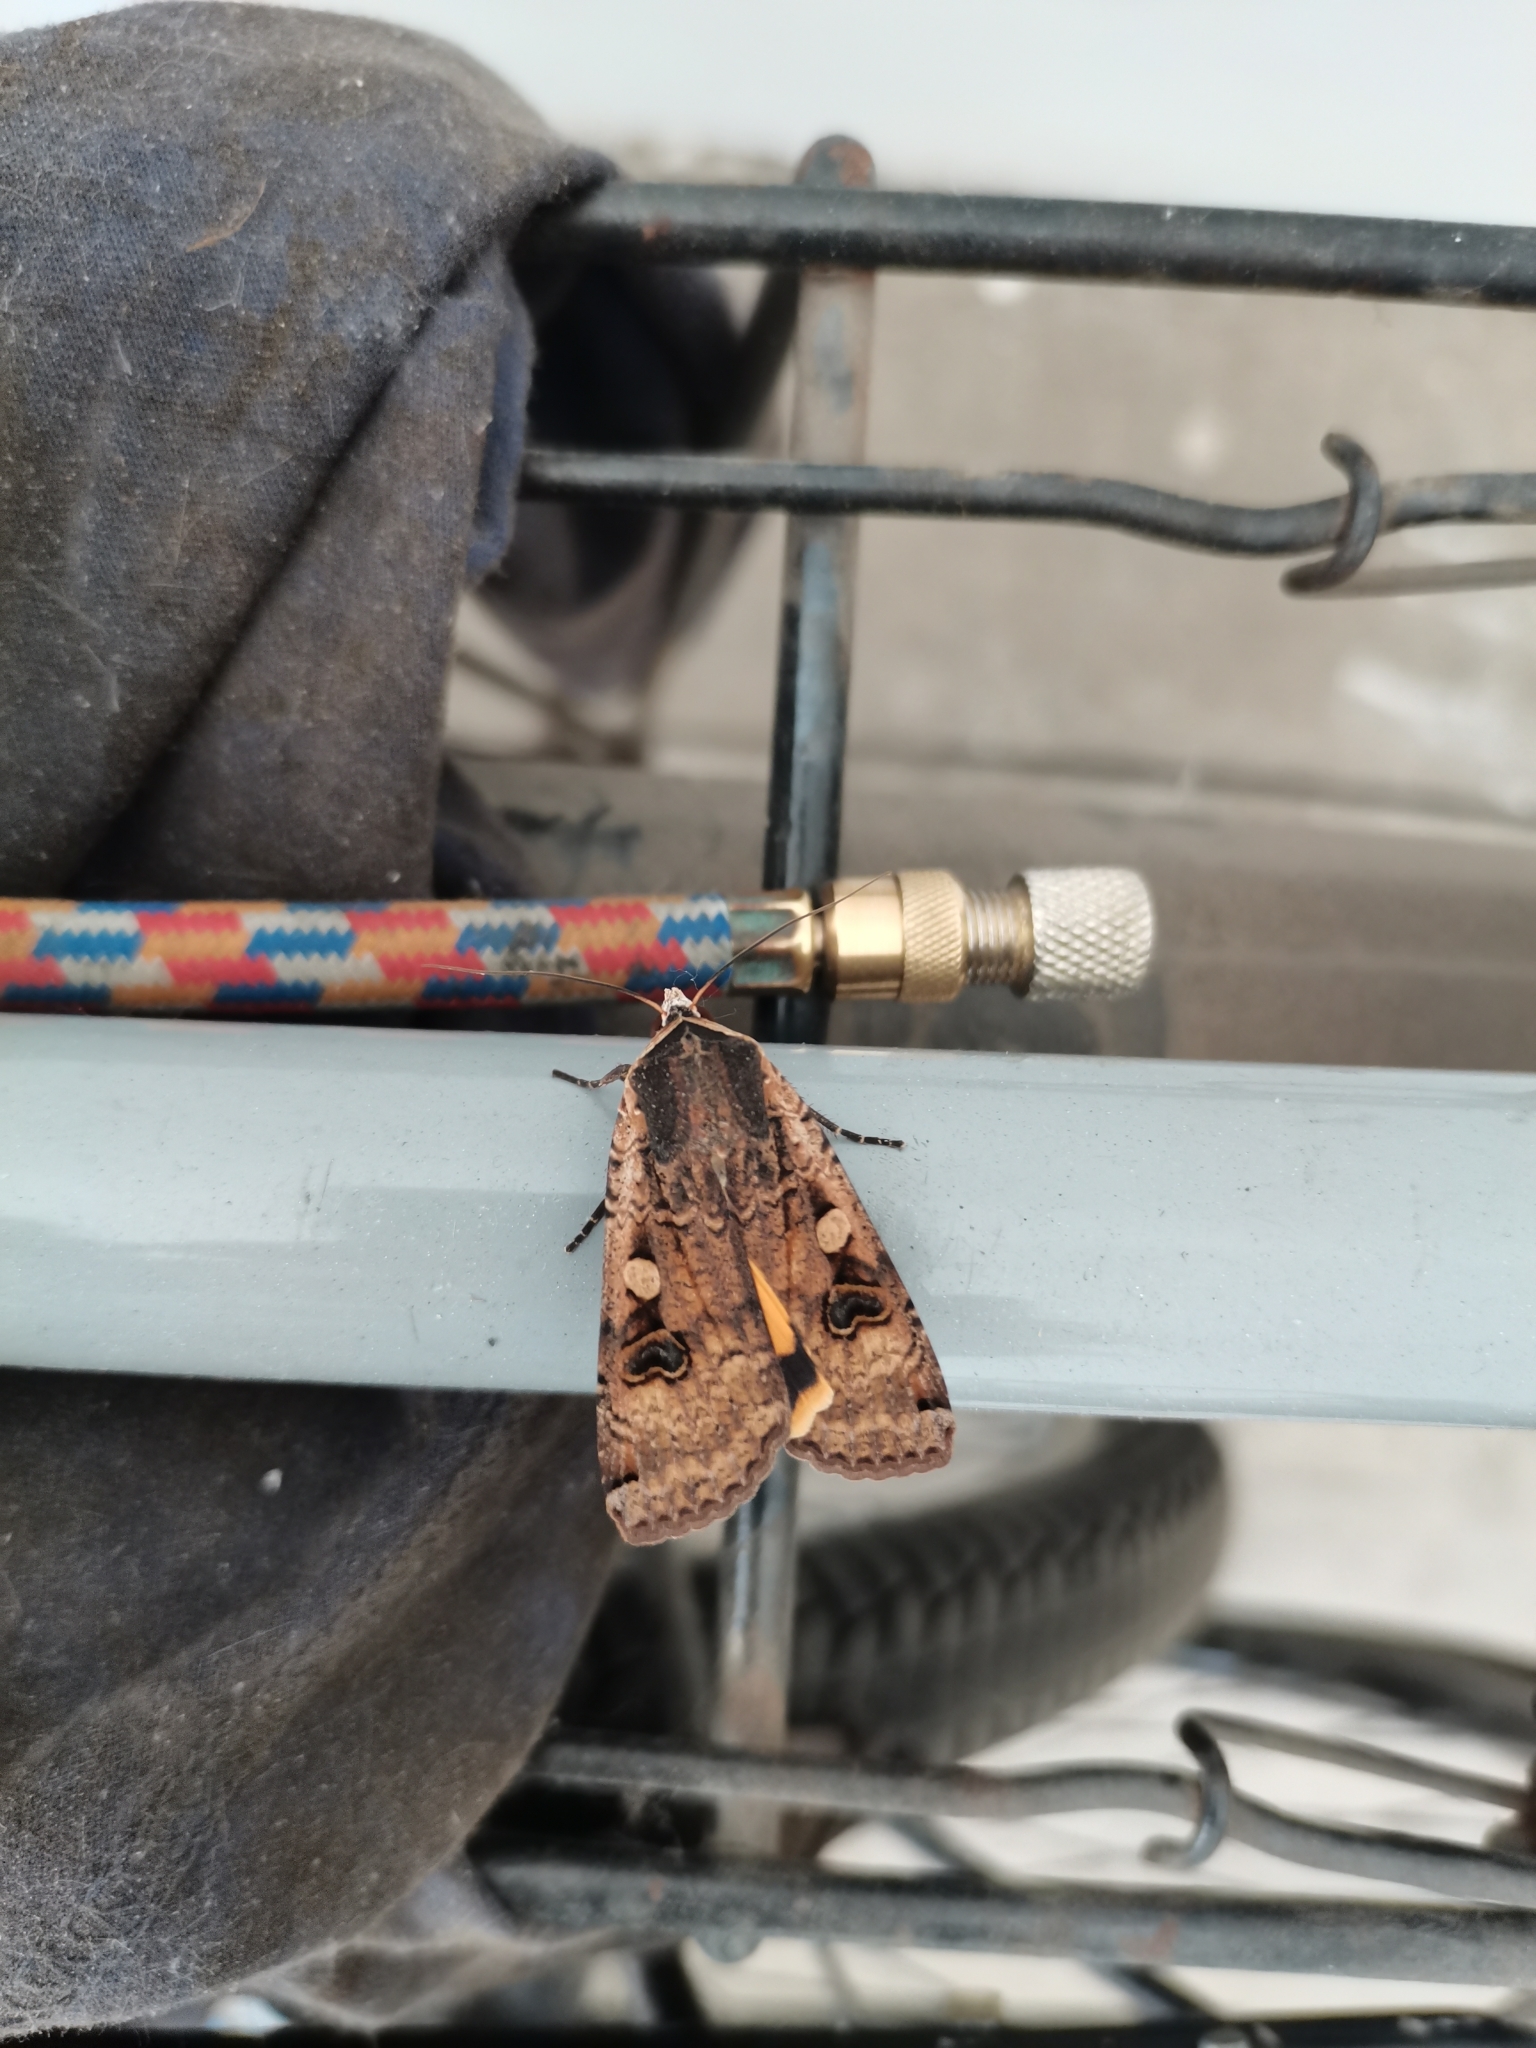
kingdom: Animalia
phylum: Arthropoda
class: Insecta
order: Lepidoptera
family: Noctuidae
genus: Noctua
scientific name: Noctua pronuba
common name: Large yellow underwing
